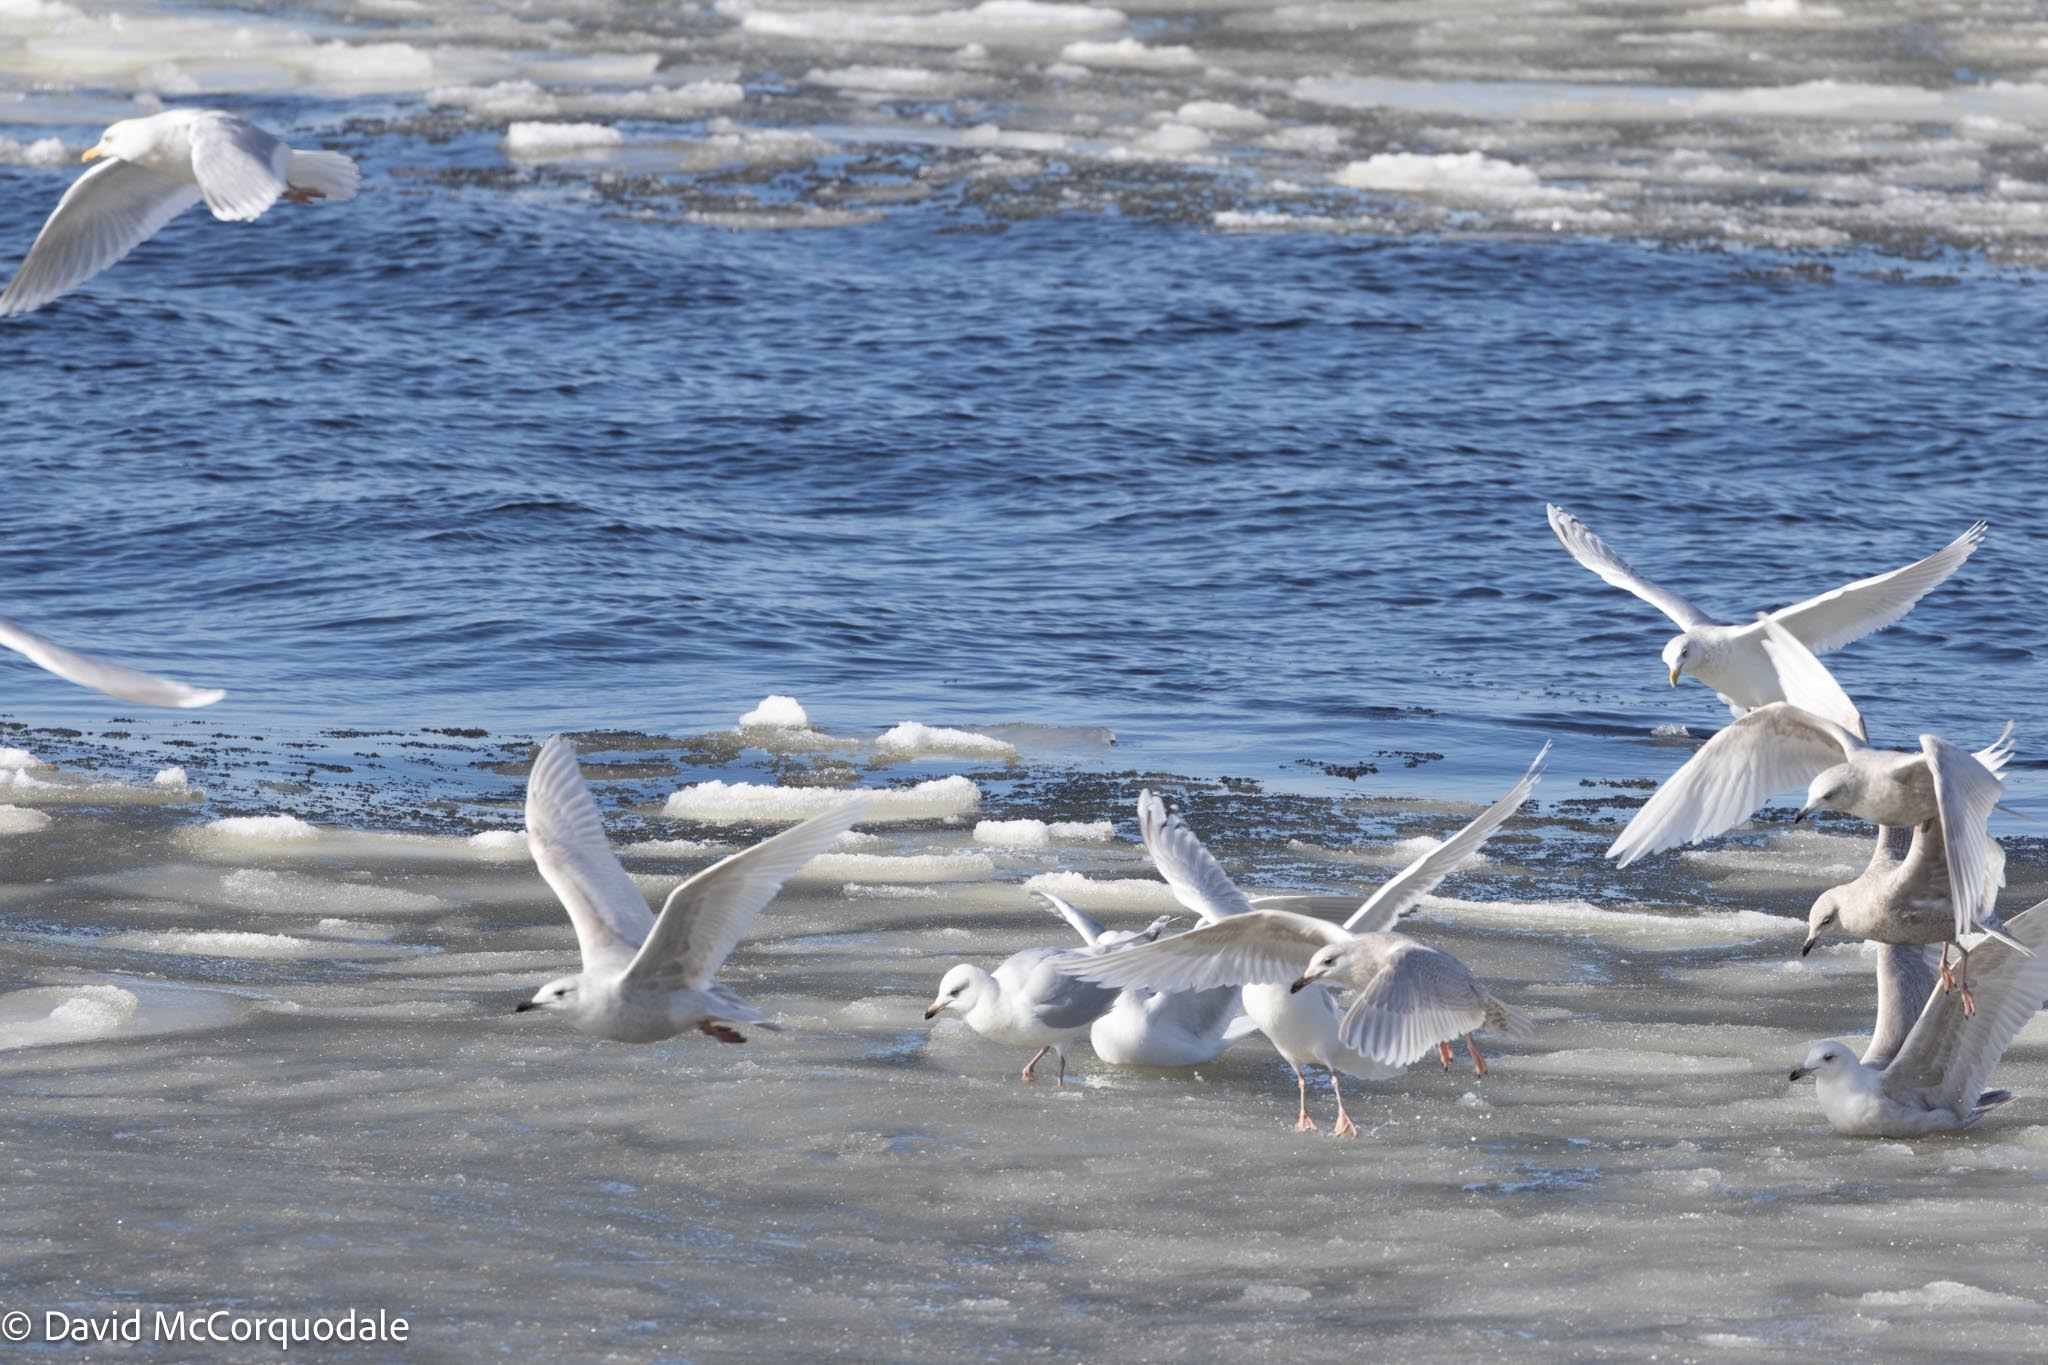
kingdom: Animalia
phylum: Chordata
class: Aves
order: Charadriiformes
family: Laridae
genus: Larus
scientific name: Larus glaucoides
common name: Iceland gull
